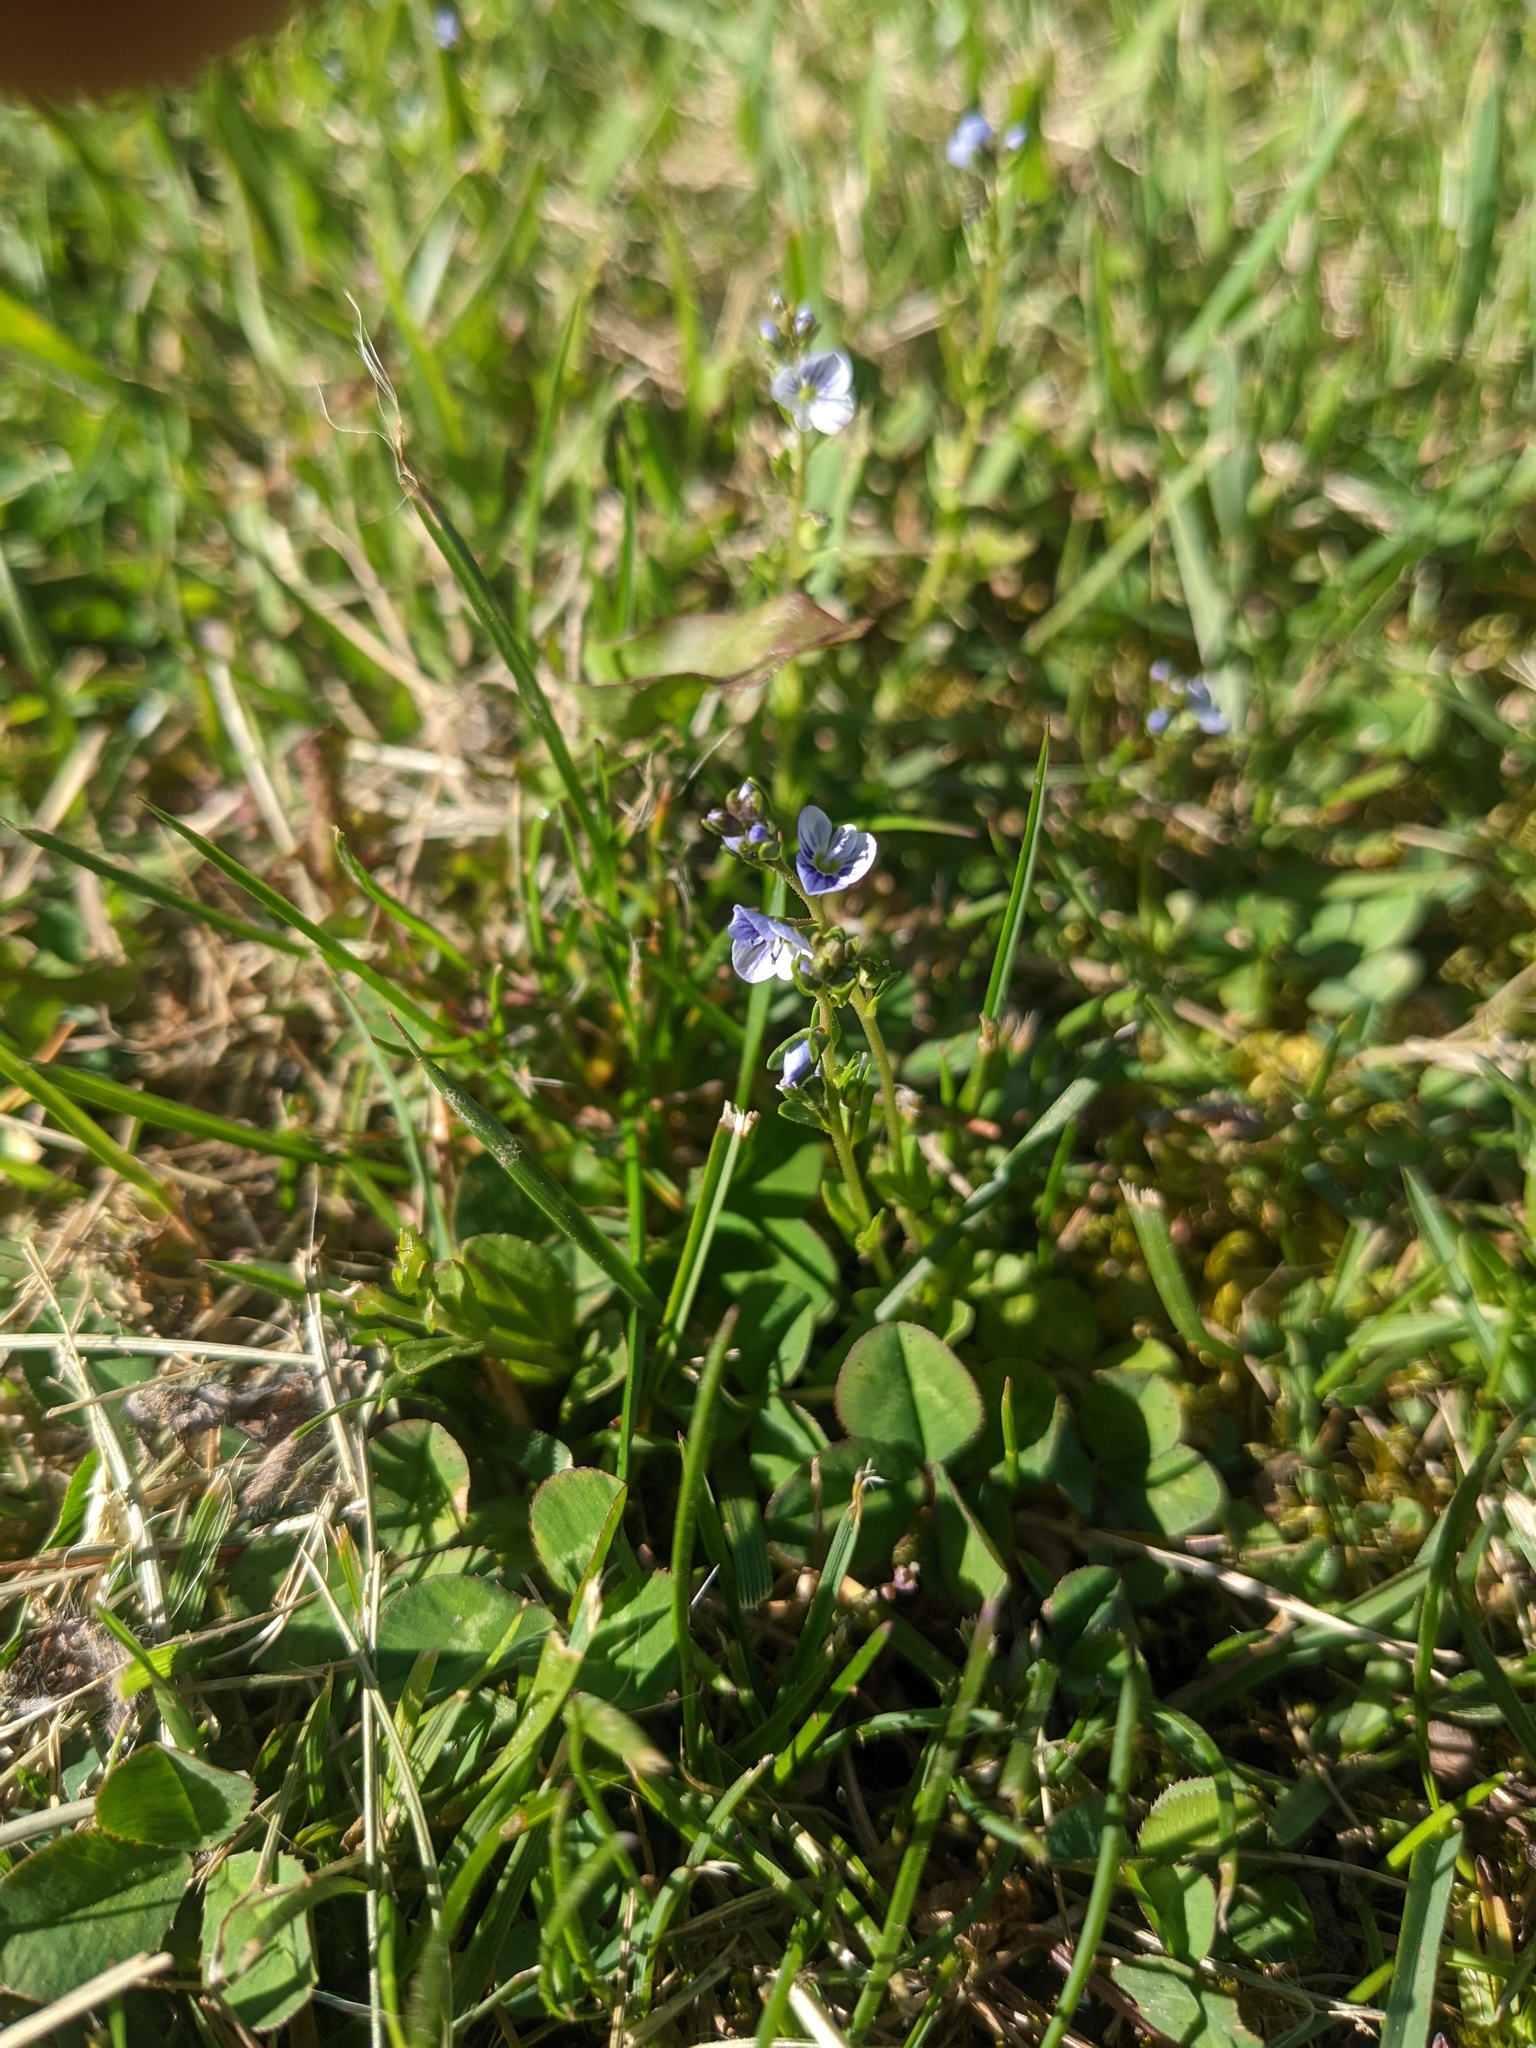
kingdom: Plantae
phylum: Tracheophyta
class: Magnoliopsida
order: Lamiales
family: Plantaginaceae
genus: Veronica
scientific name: Veronica serpyllifolia
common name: Thyme-leaved speedwell
